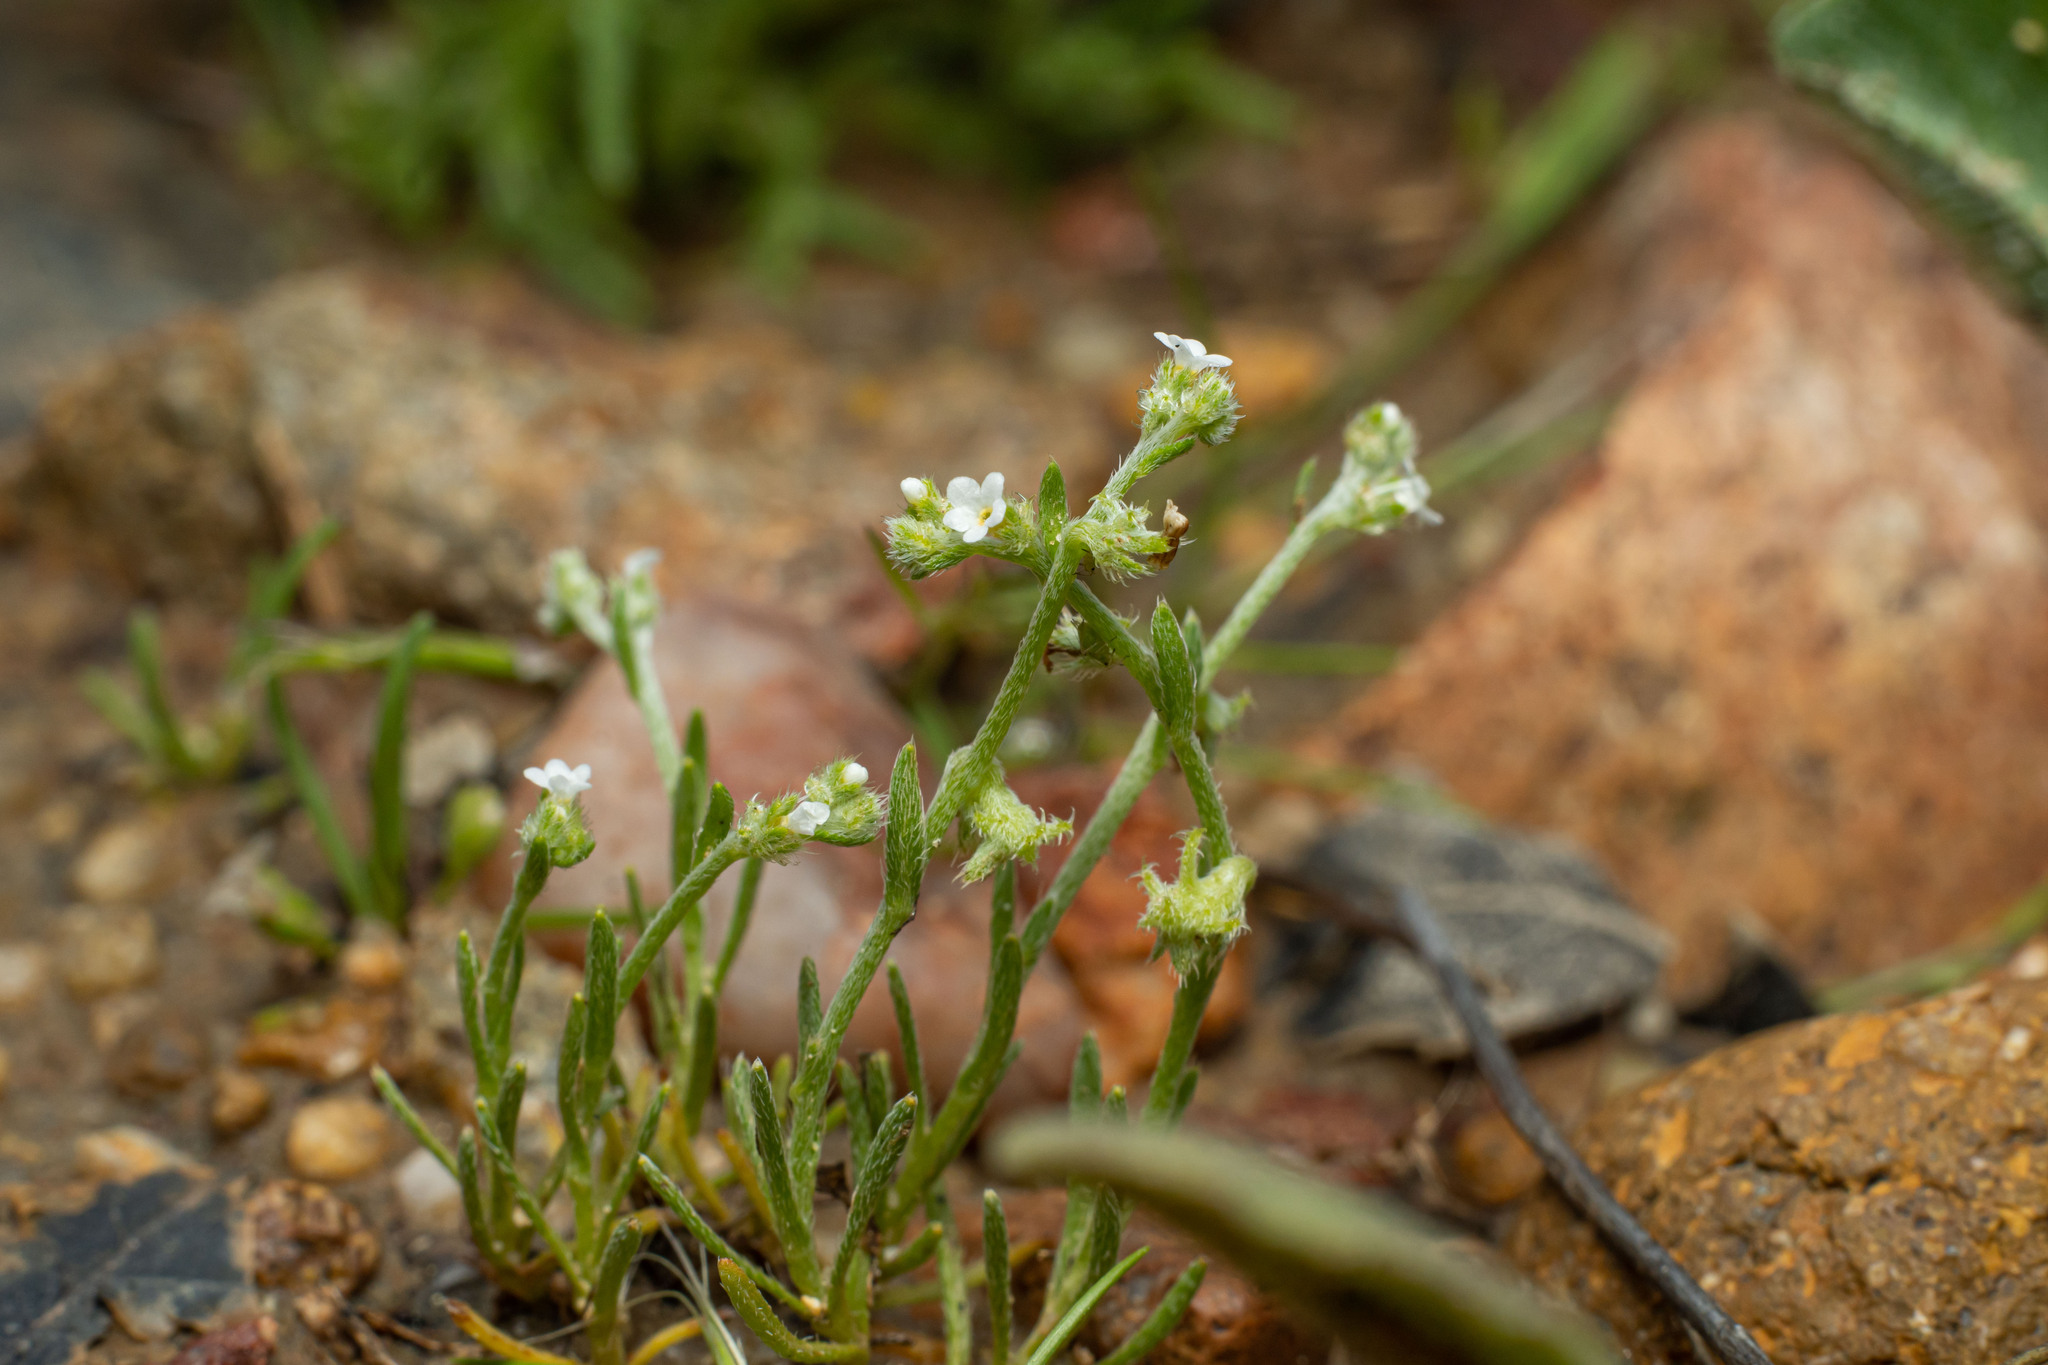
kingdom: Plantae
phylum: Tracheophyta
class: Magnoliopsida
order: Boraginales
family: Boraginaceae
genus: Harpagonella
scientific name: Harpagonella palmeri
